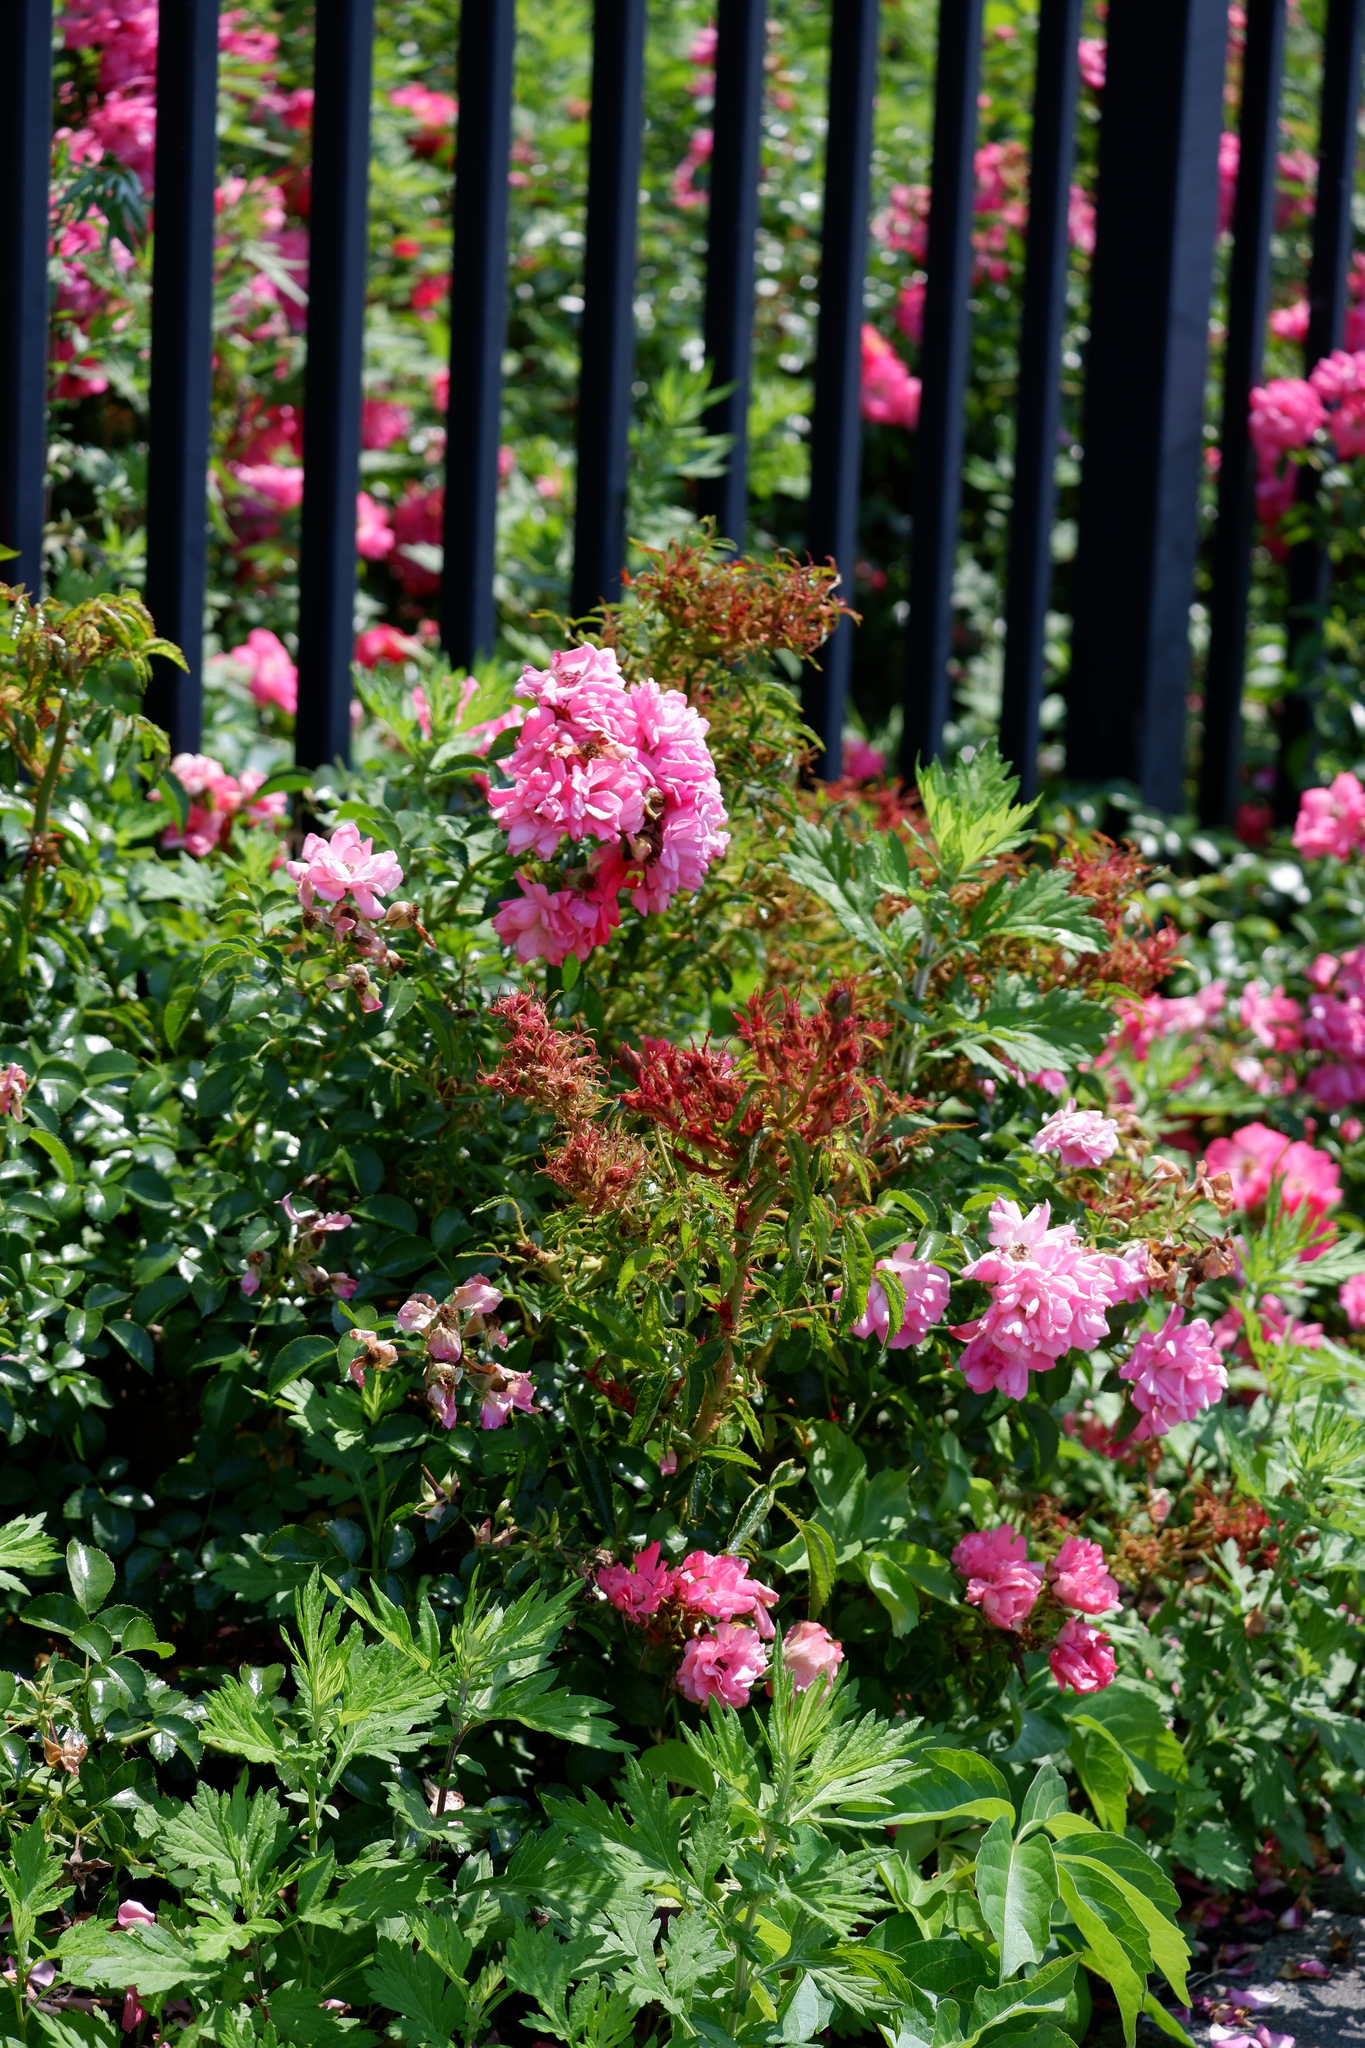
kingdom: Viruses
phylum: Negarnaviricota
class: Ellioviricetes
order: Bunyavirales
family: Fimoviridae
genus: Emaravirus
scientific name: Emaravirus rosae
